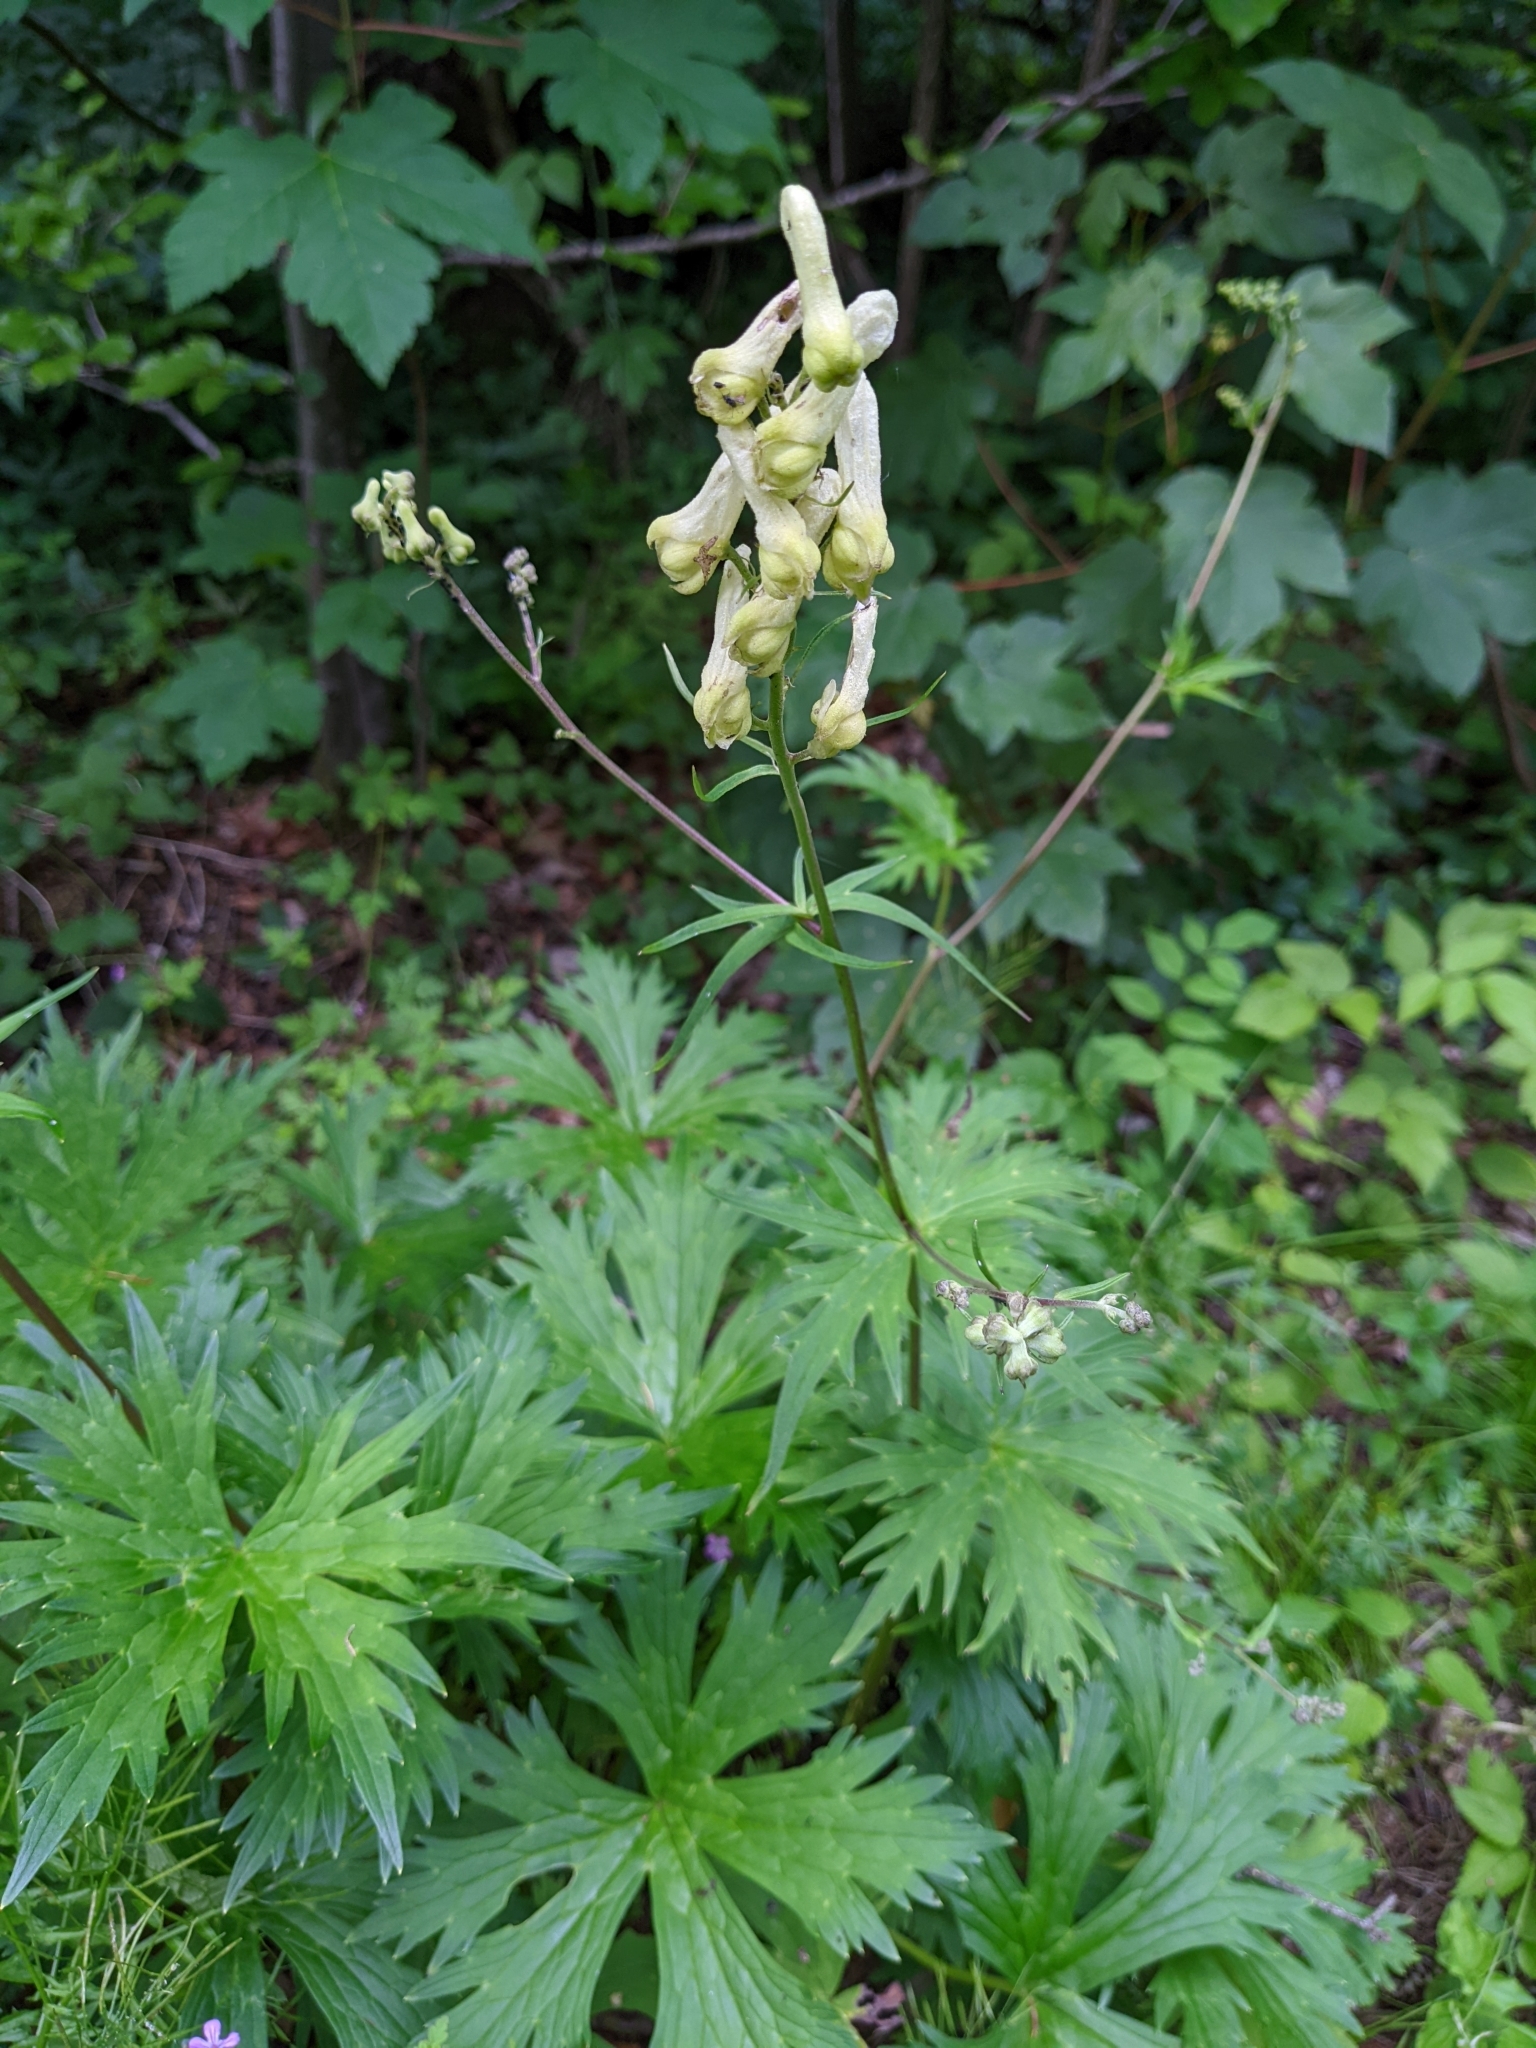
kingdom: Plantae
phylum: Tracheophyta
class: Magnoliopsida
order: Ranunculales
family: Ranunculaceae
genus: Aconitum
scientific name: Aconitum lycoctonum
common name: Wolf's-bane
